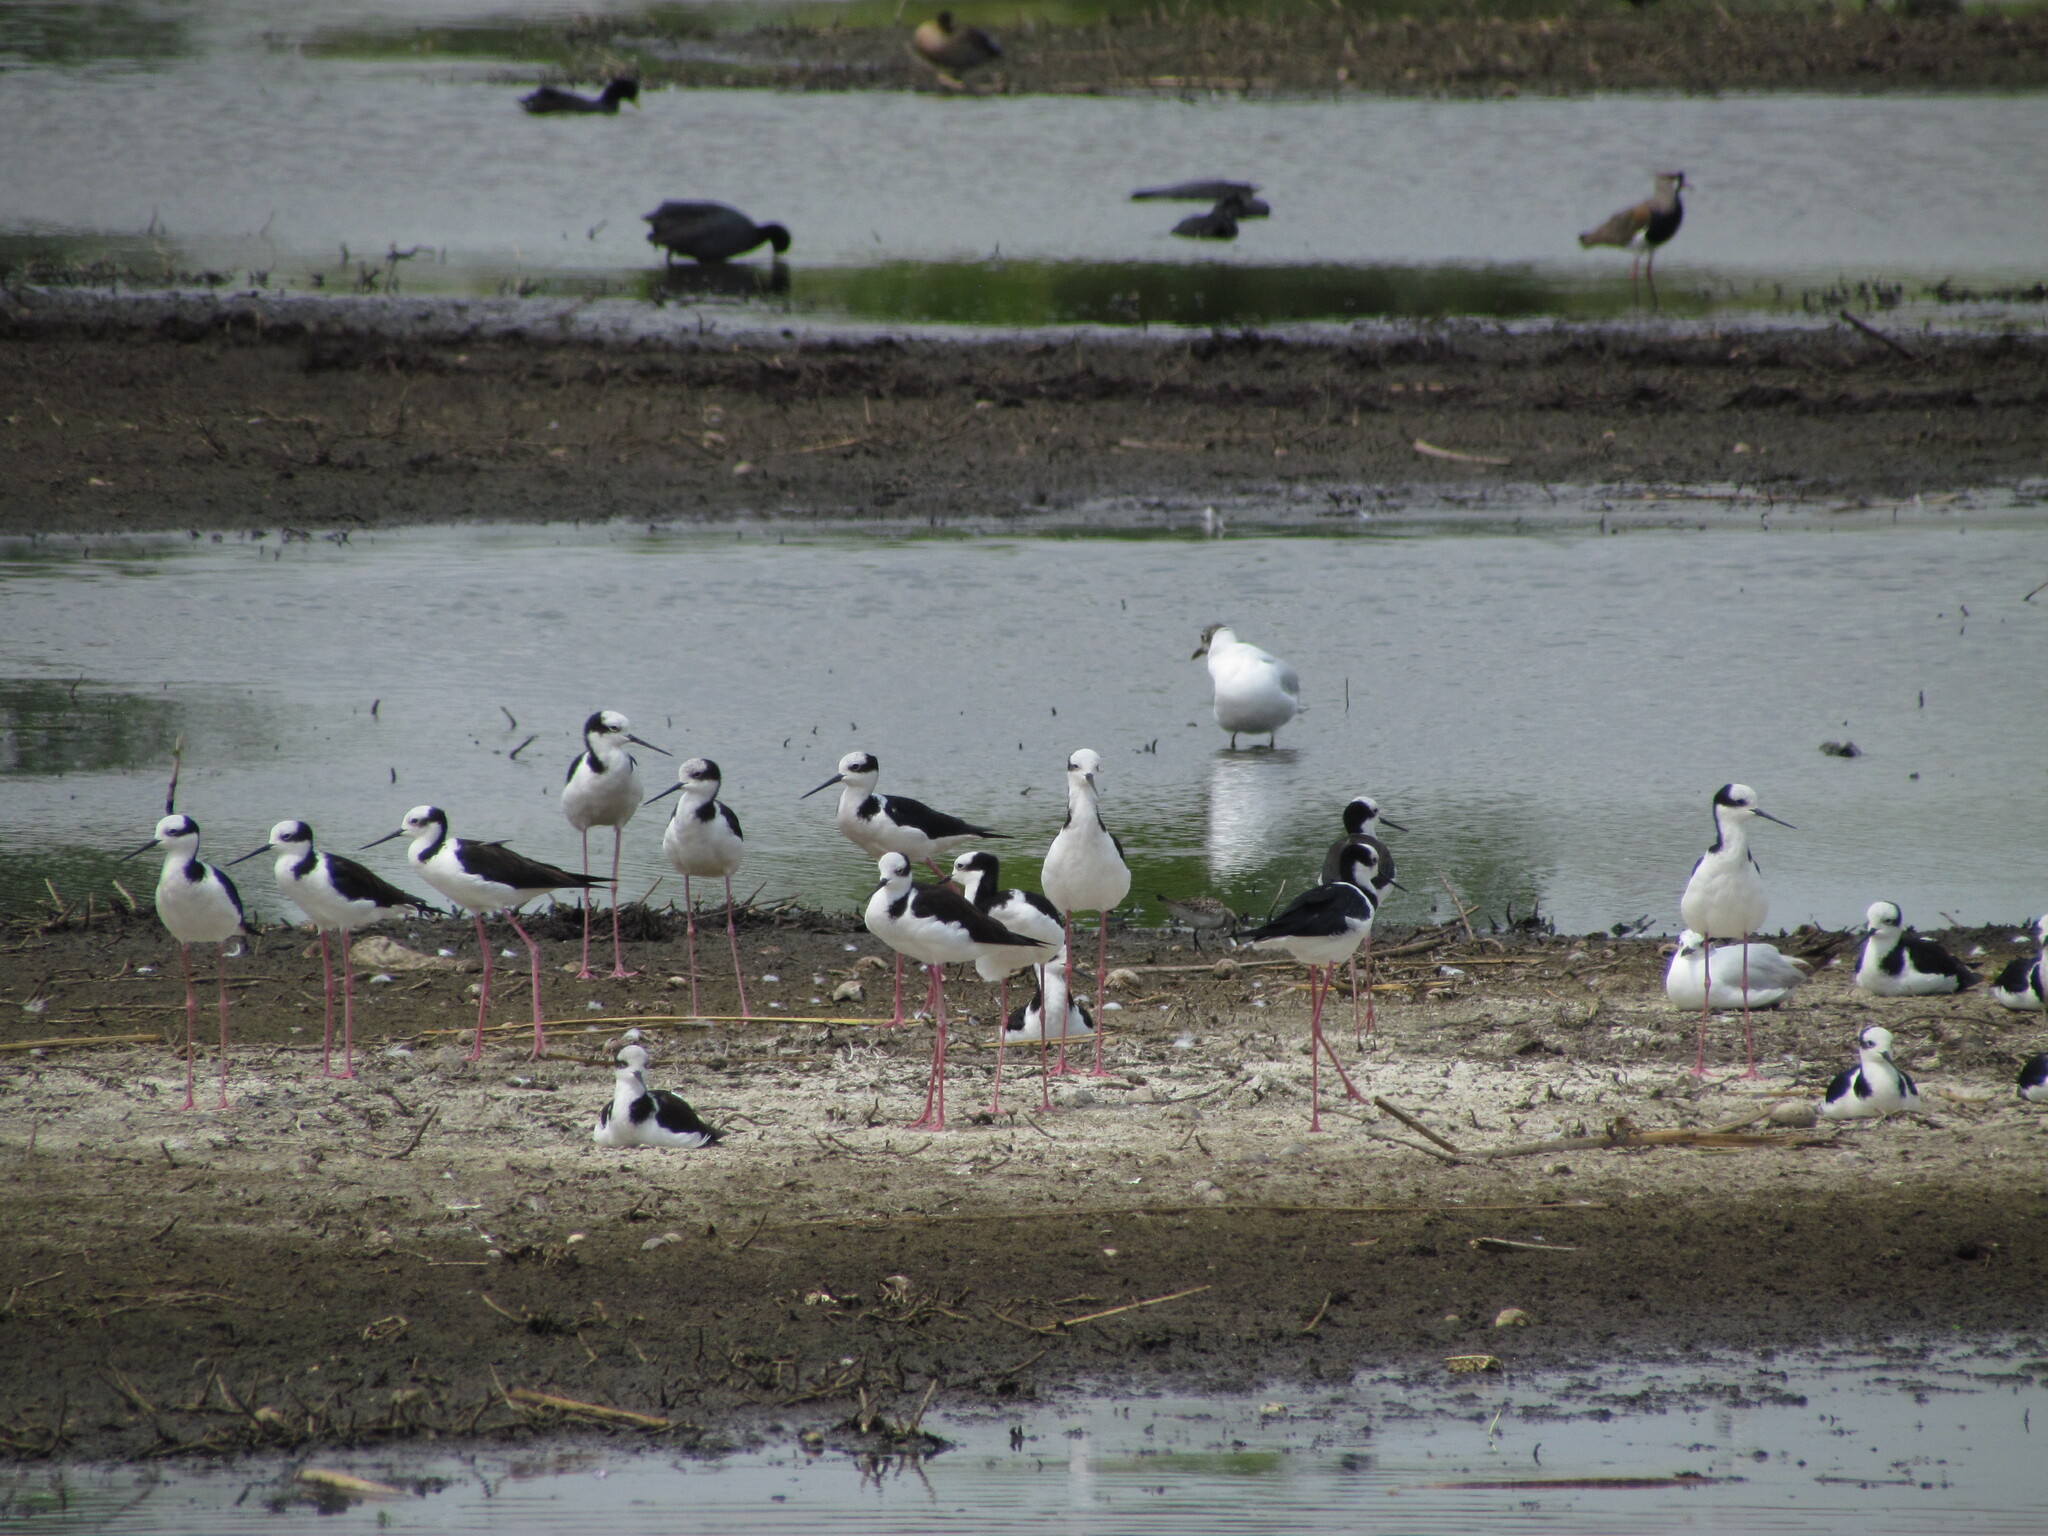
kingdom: Animalia
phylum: Chordata
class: Aves
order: Charadriiformes
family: Recurvirostridae
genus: Himantopus
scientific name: Himantopus mexicanus
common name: Black-necked stilt
